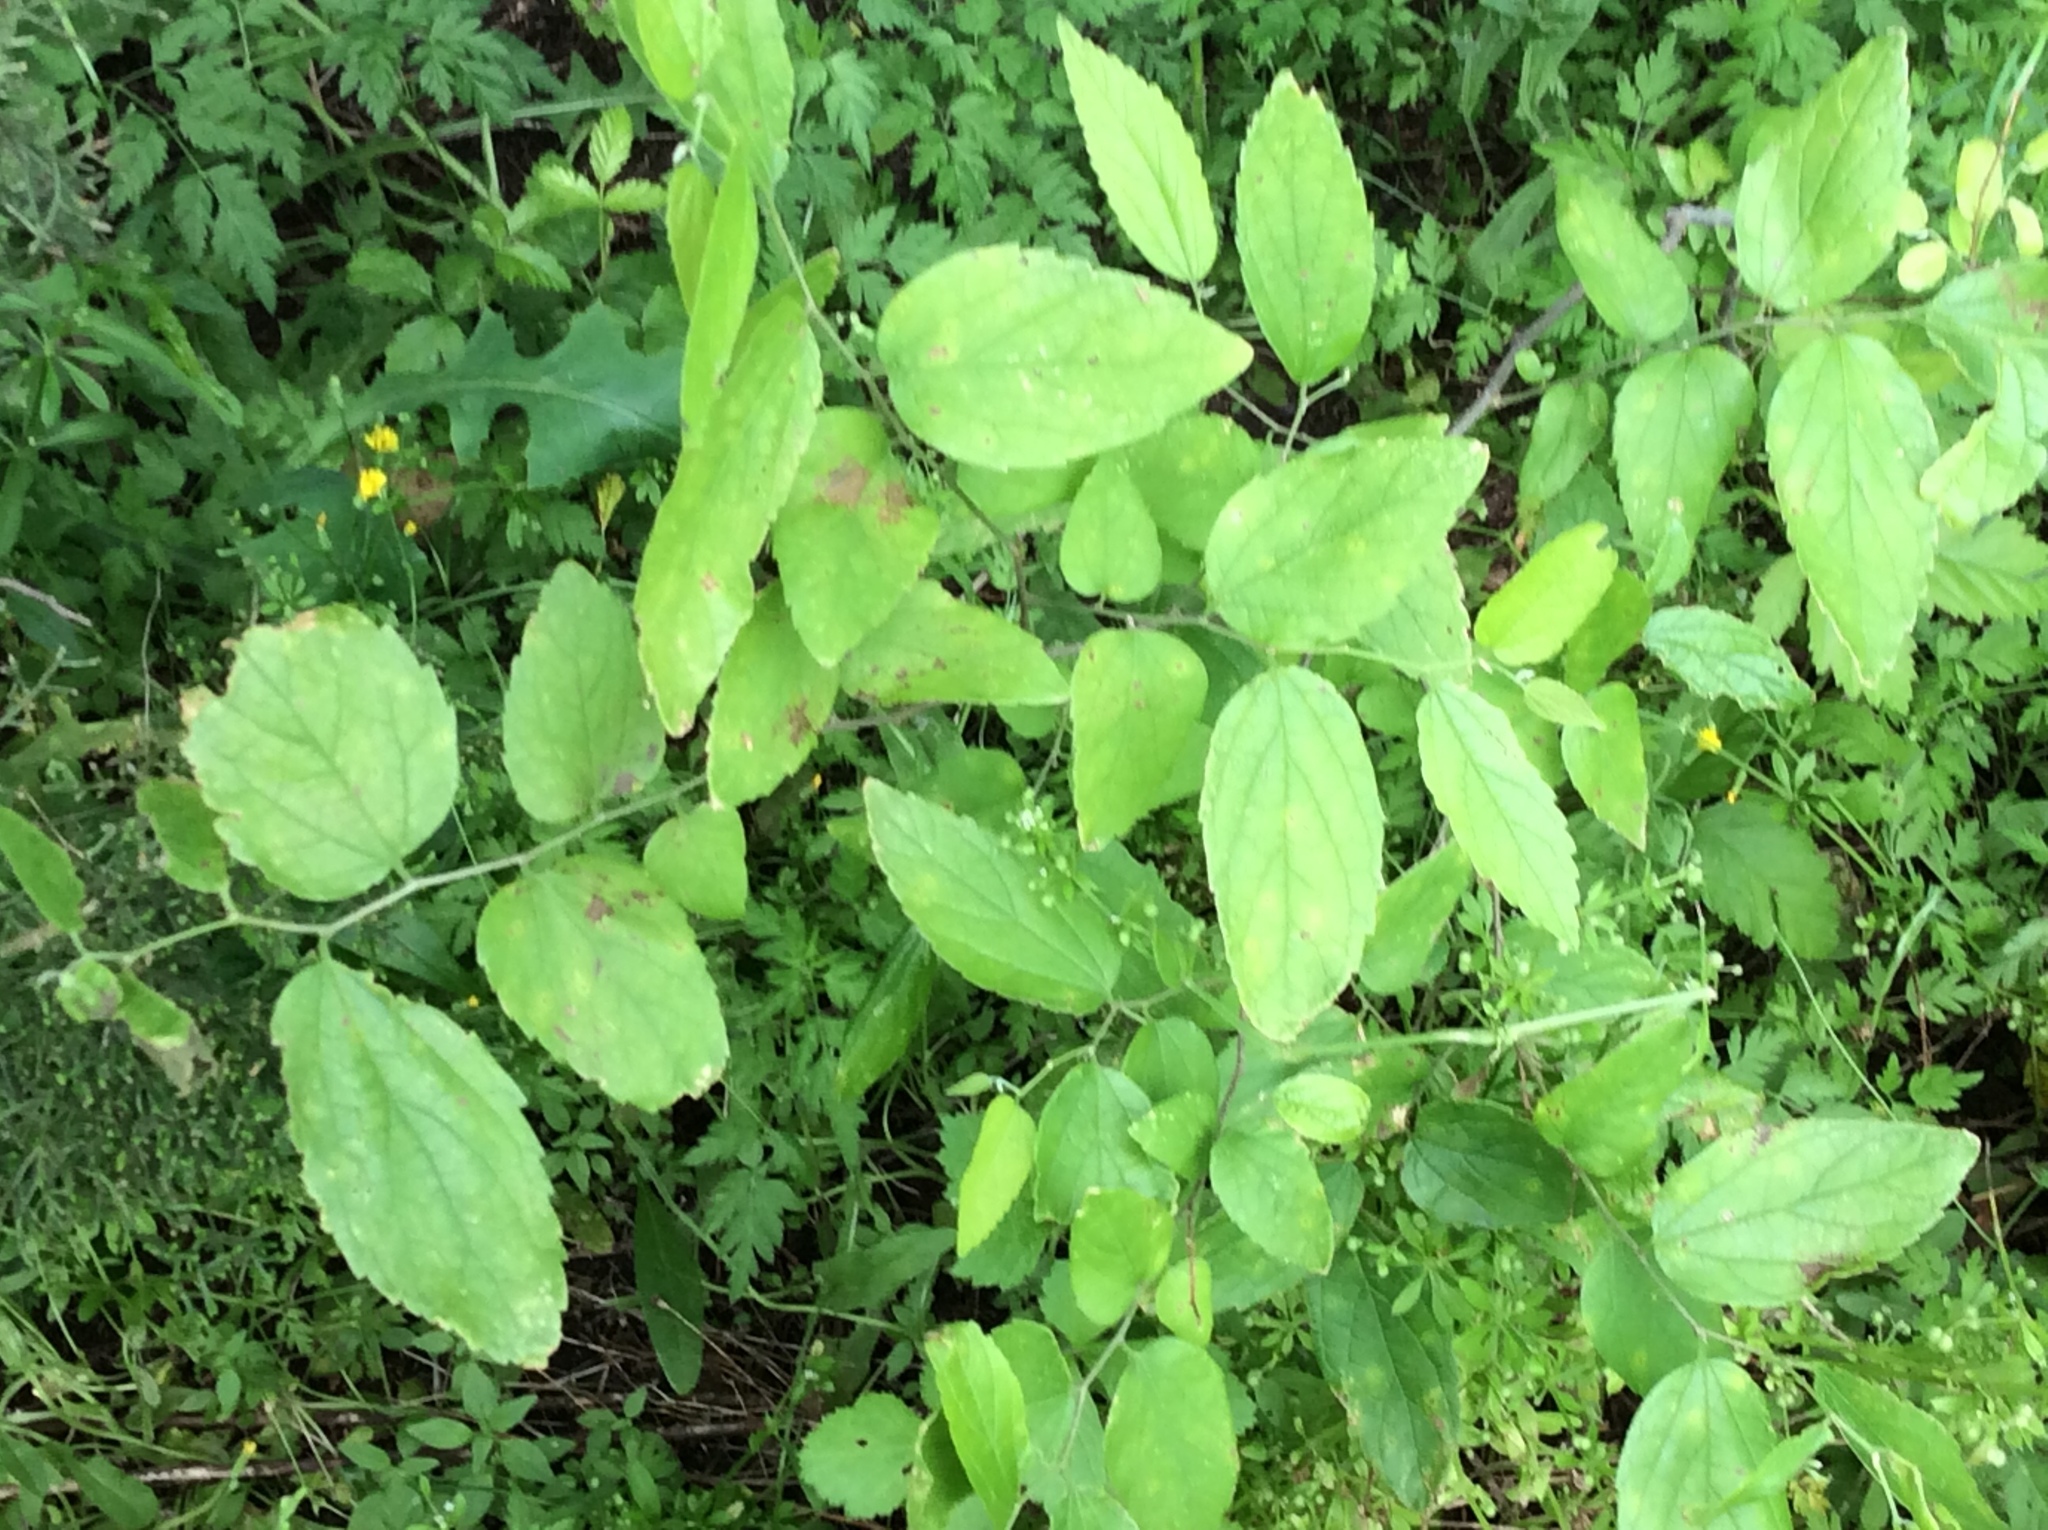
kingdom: Plantae
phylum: Tracheophyta
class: Magnoliopsida
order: Rosales
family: Cannabaceae
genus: Celtis
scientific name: Celtis laevigata
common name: Sugarberry
